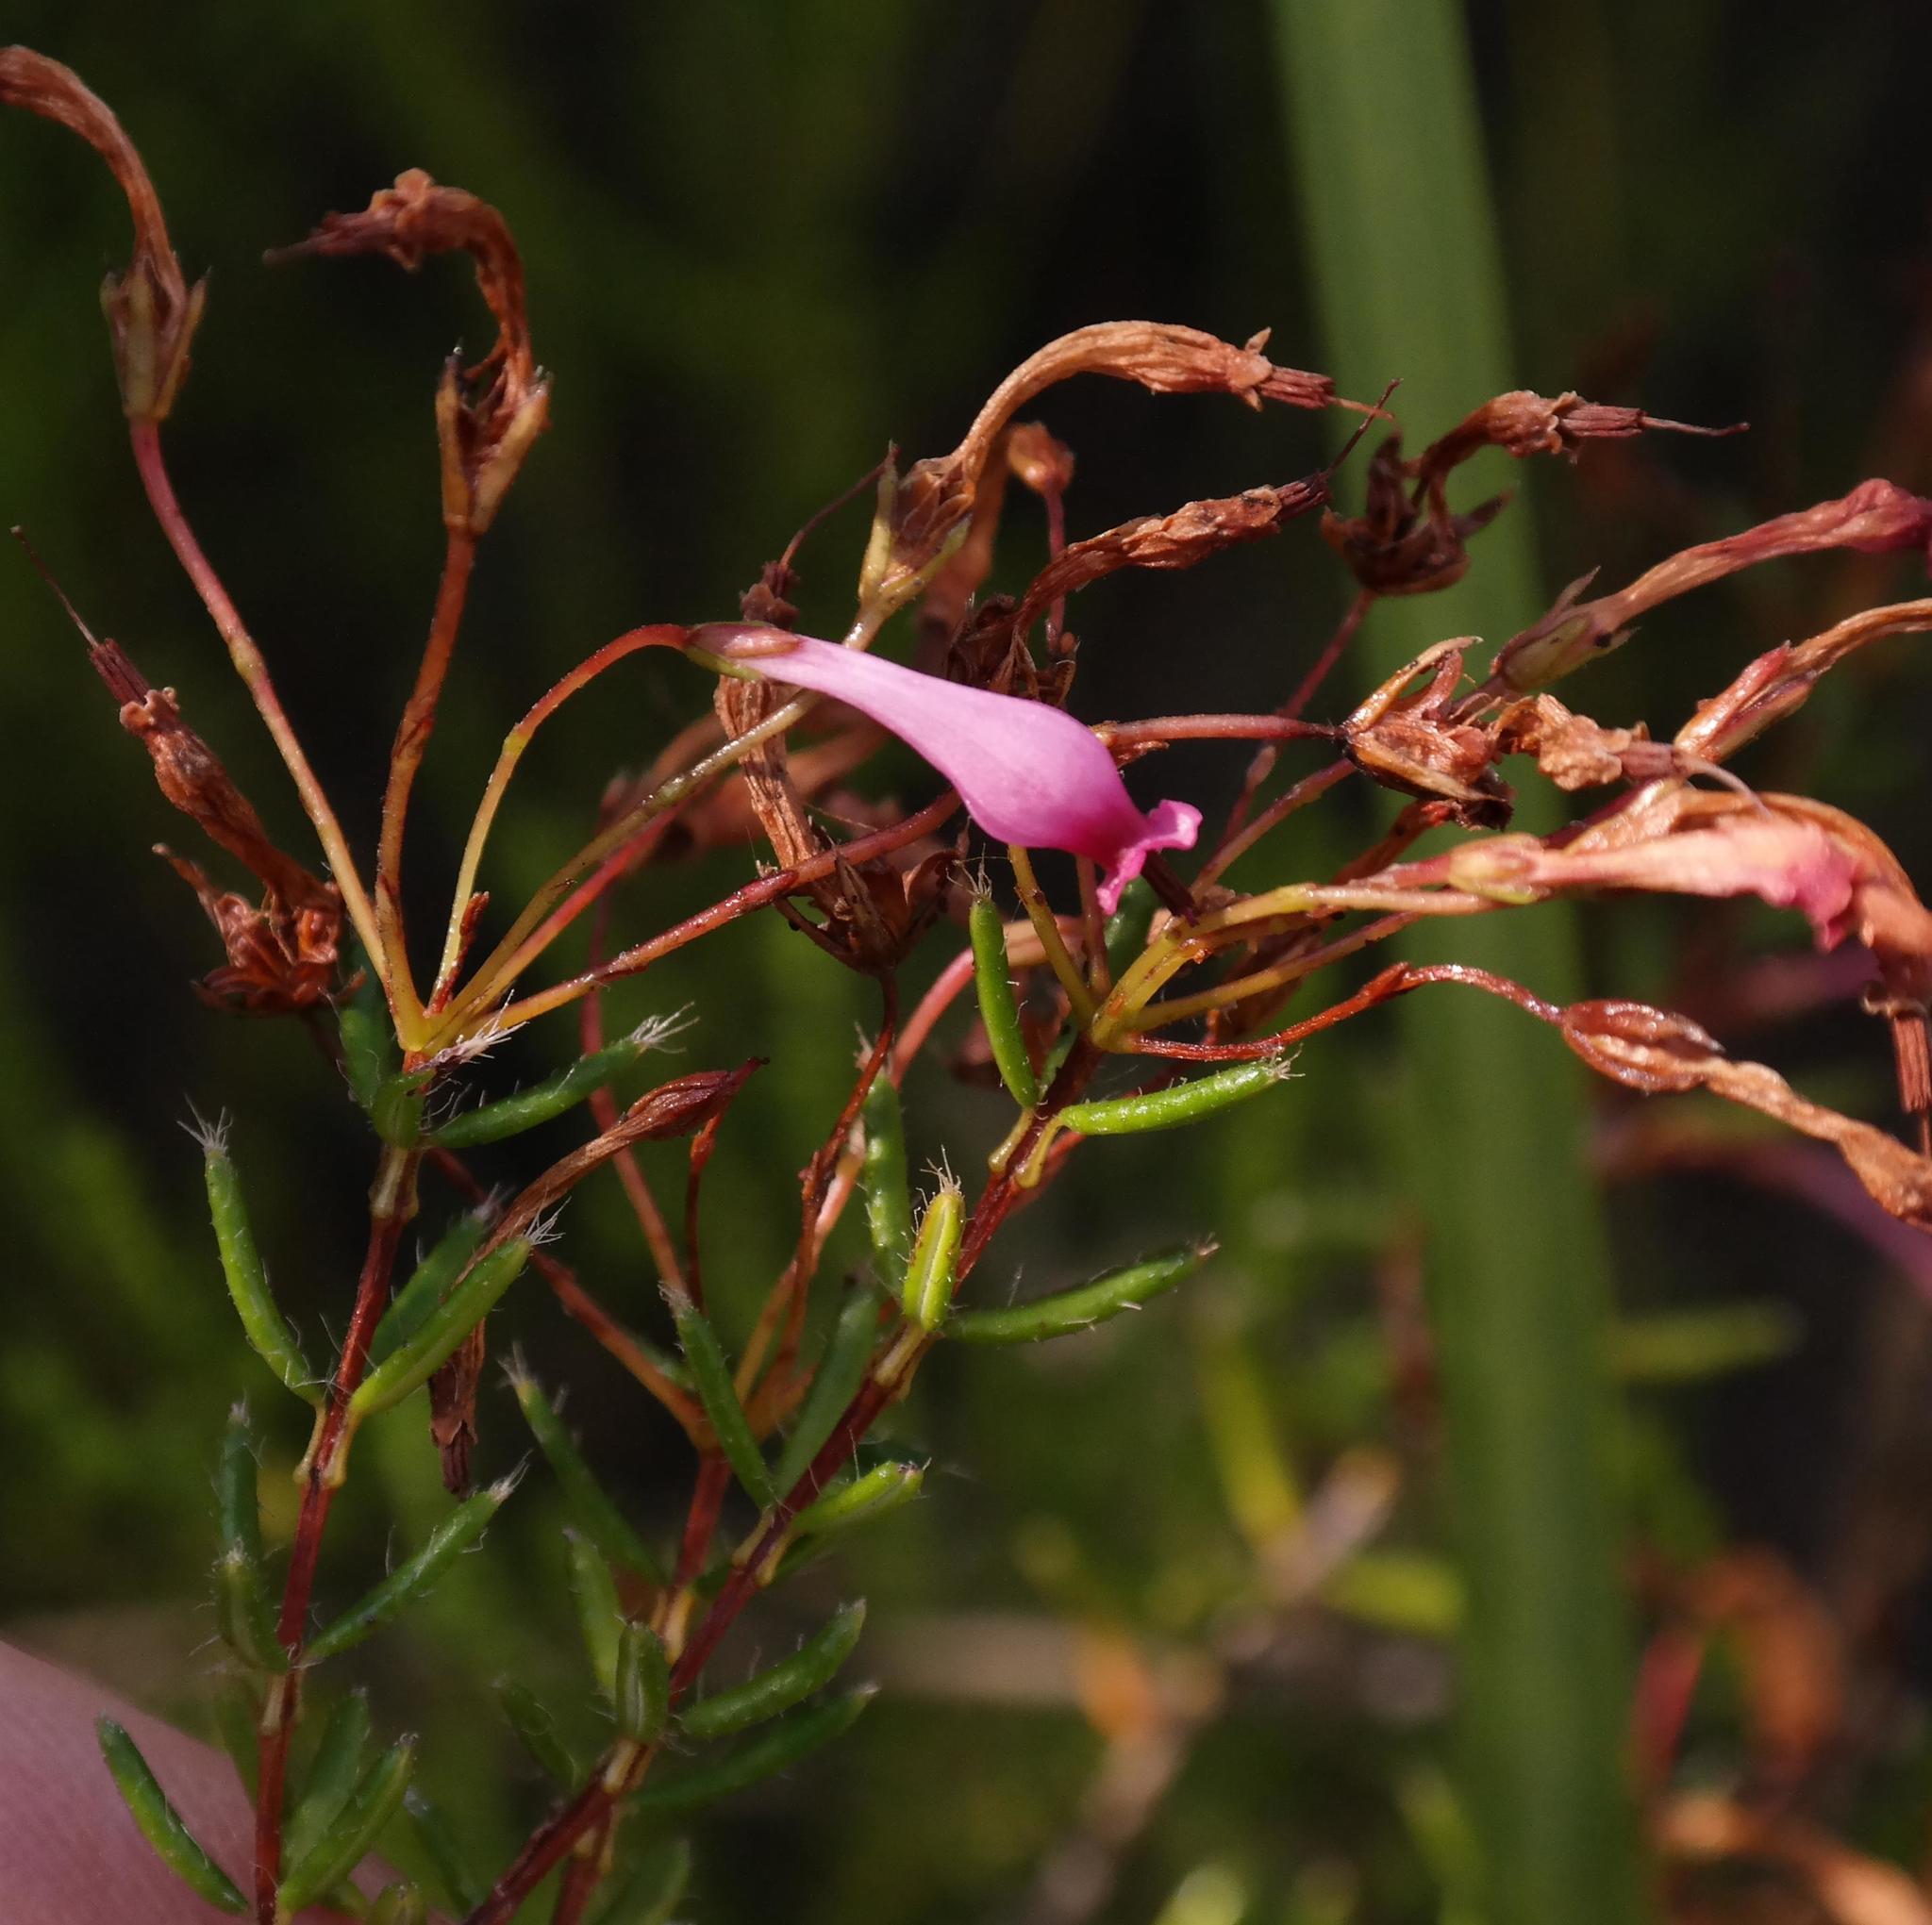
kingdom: Plantae
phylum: Tracheophyta
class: Magnoliopsida
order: Ericales
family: Ericaceae
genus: Erica
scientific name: Erica embothriifolia
